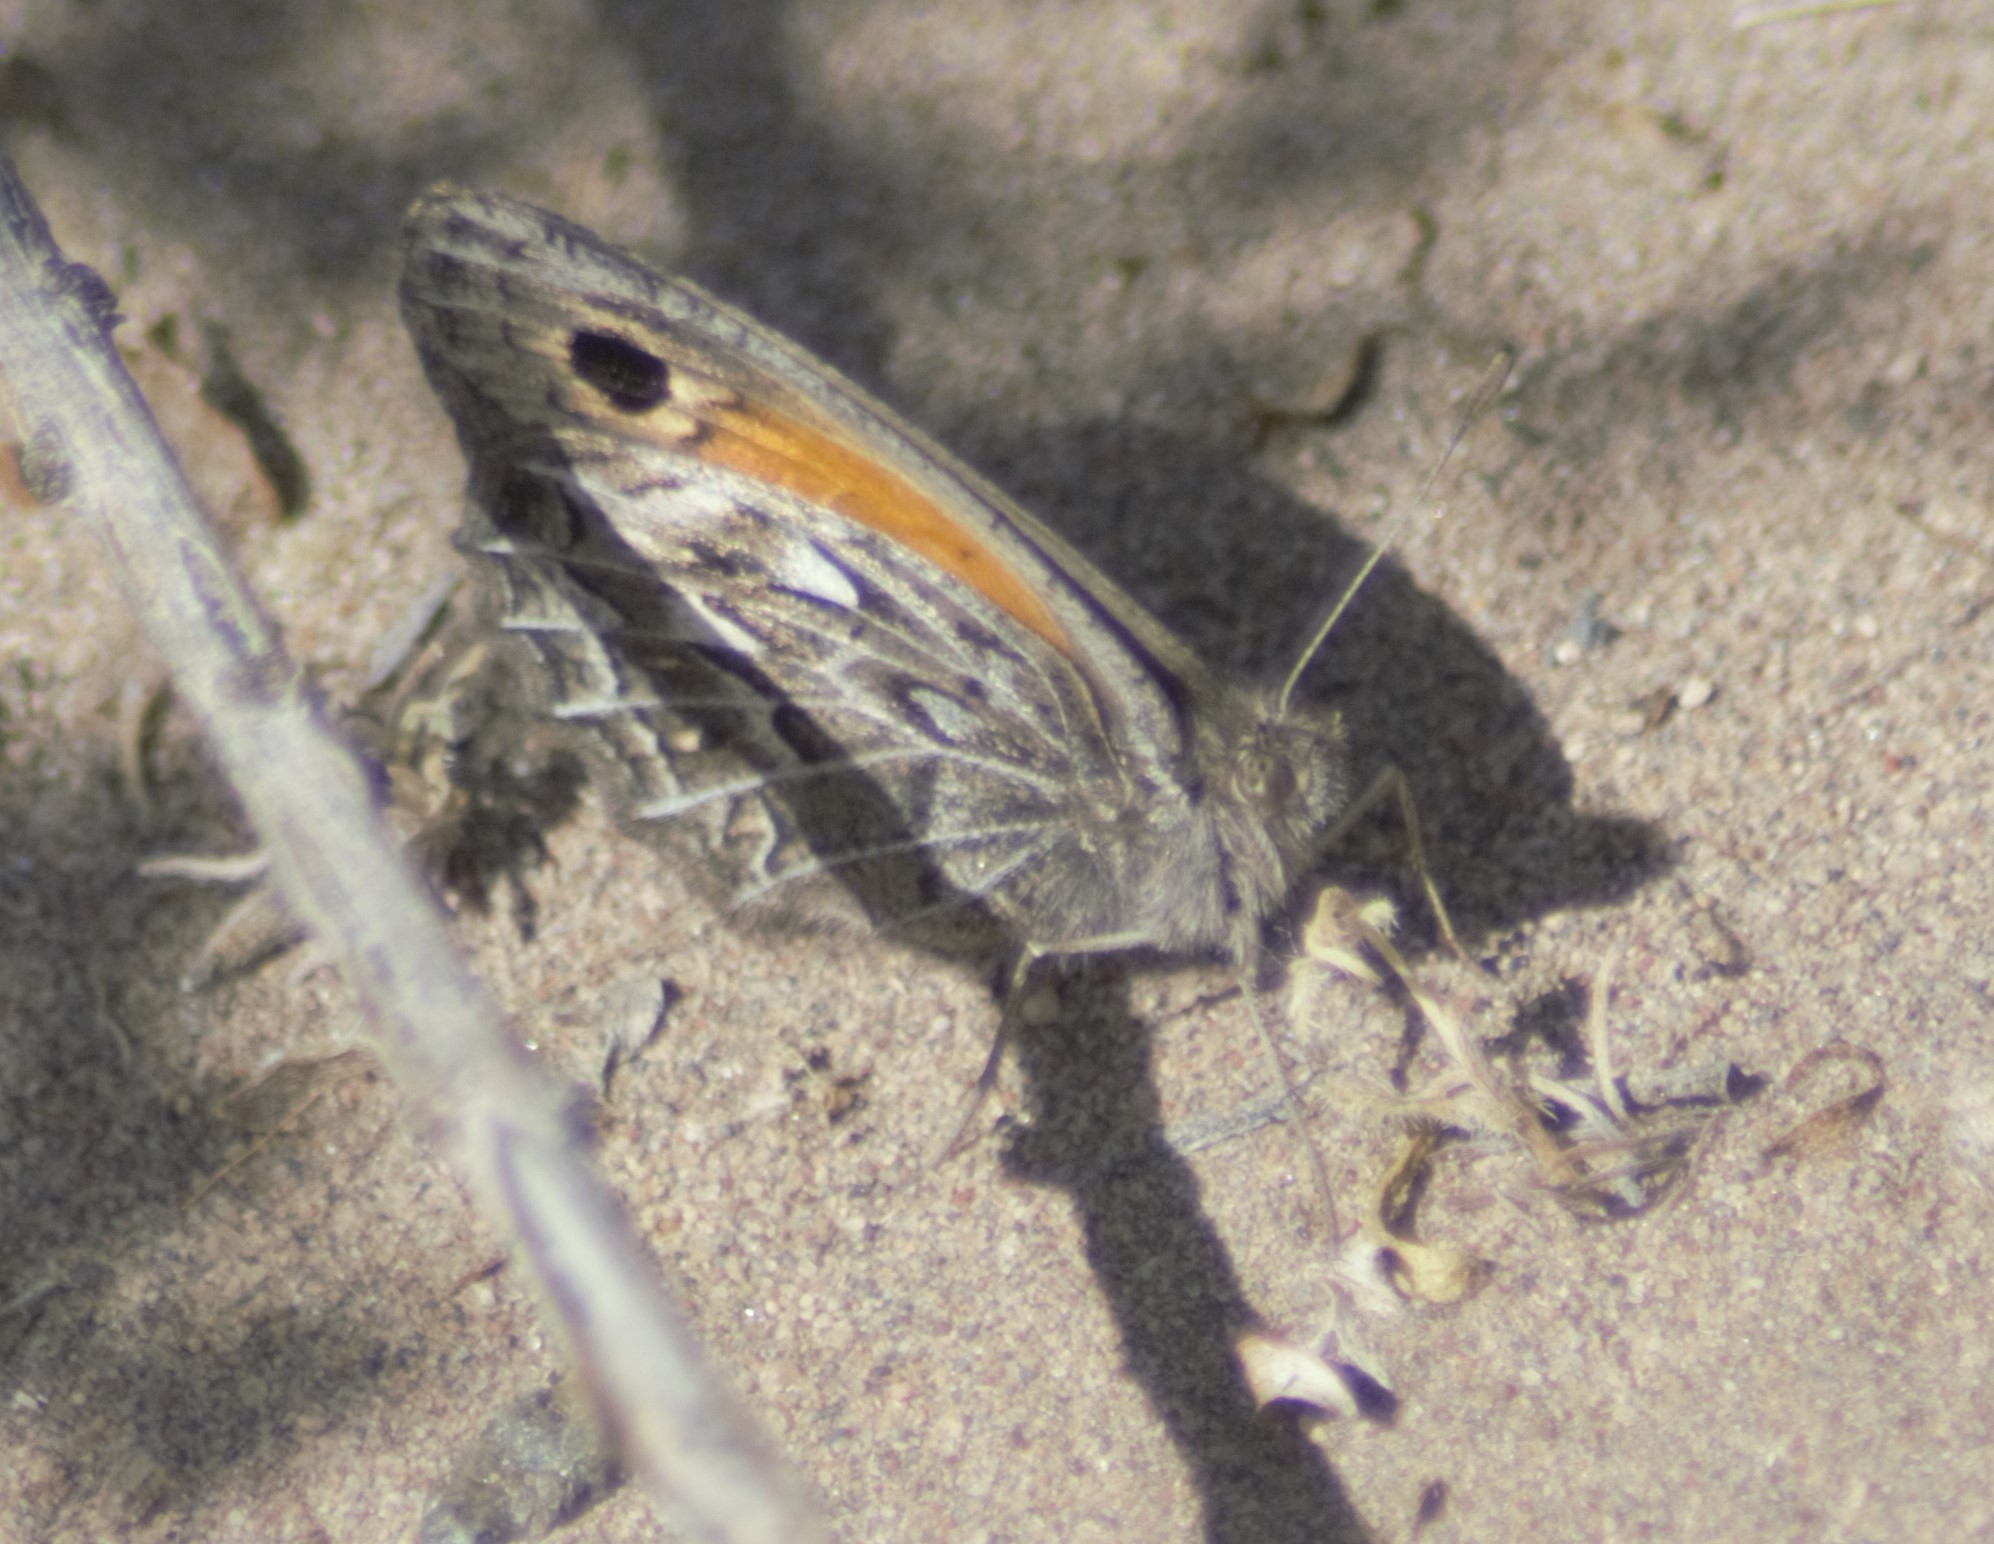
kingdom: Animalia
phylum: Arthropoda
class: Insecta
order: Lepidoptera
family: Nymphalidae
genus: Argyrophorus
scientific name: Argyrophorus
